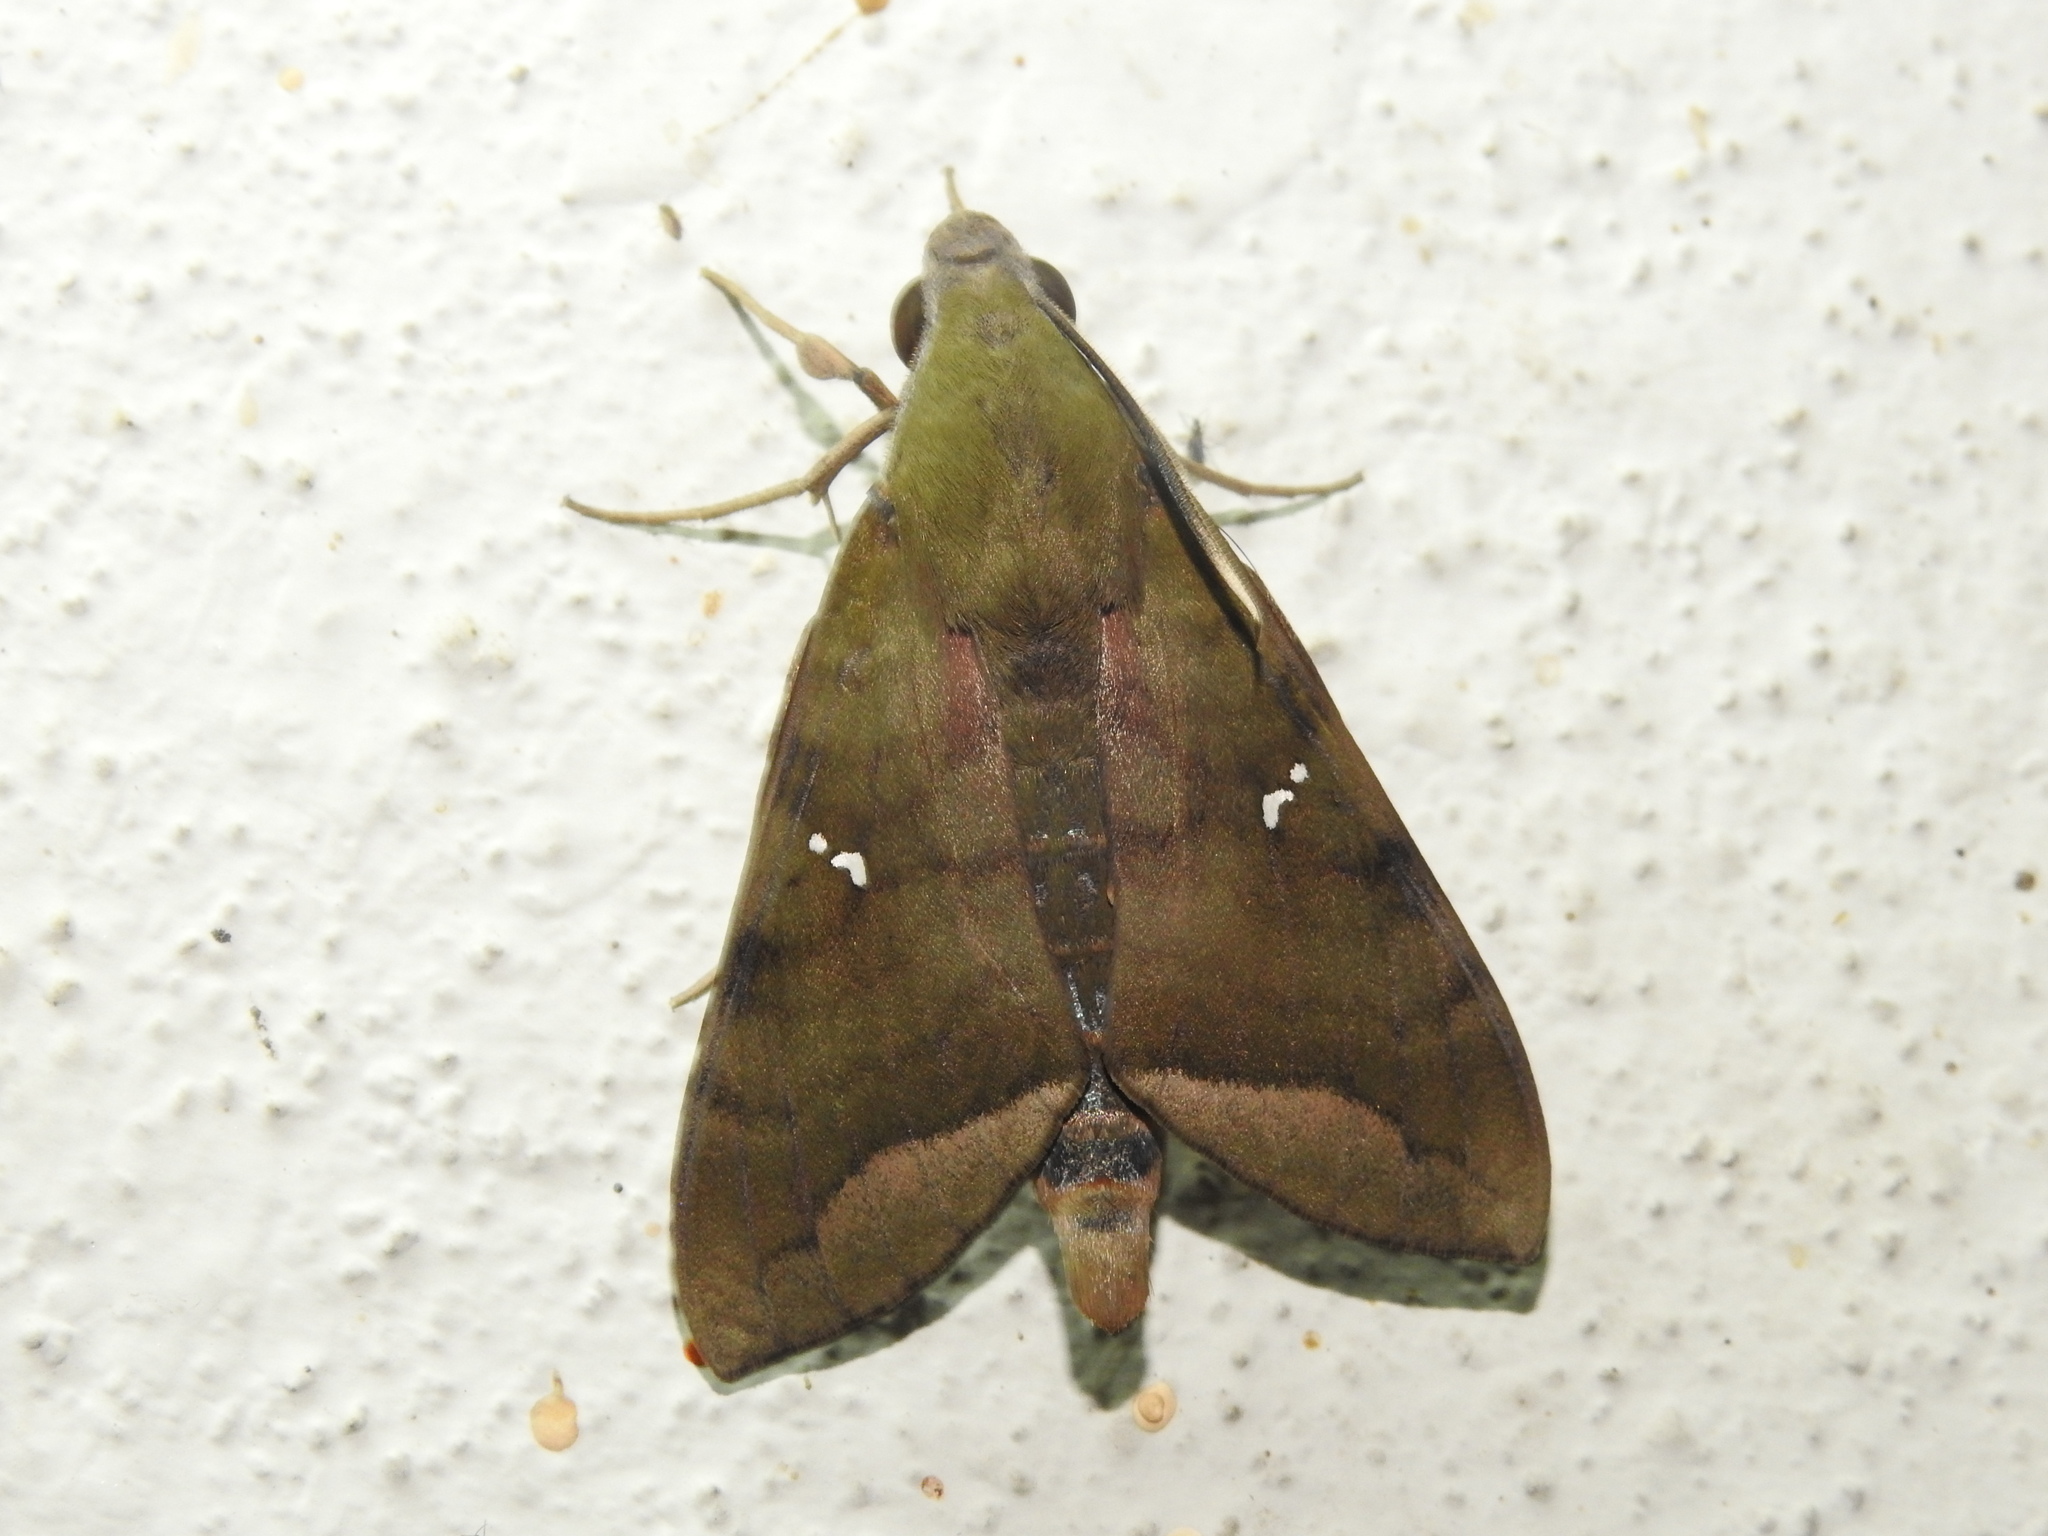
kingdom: Animalia
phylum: Arthropoda
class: Insecta
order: Lepidoptera
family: Sphingidae
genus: Nephele
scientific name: Nephele hespera
